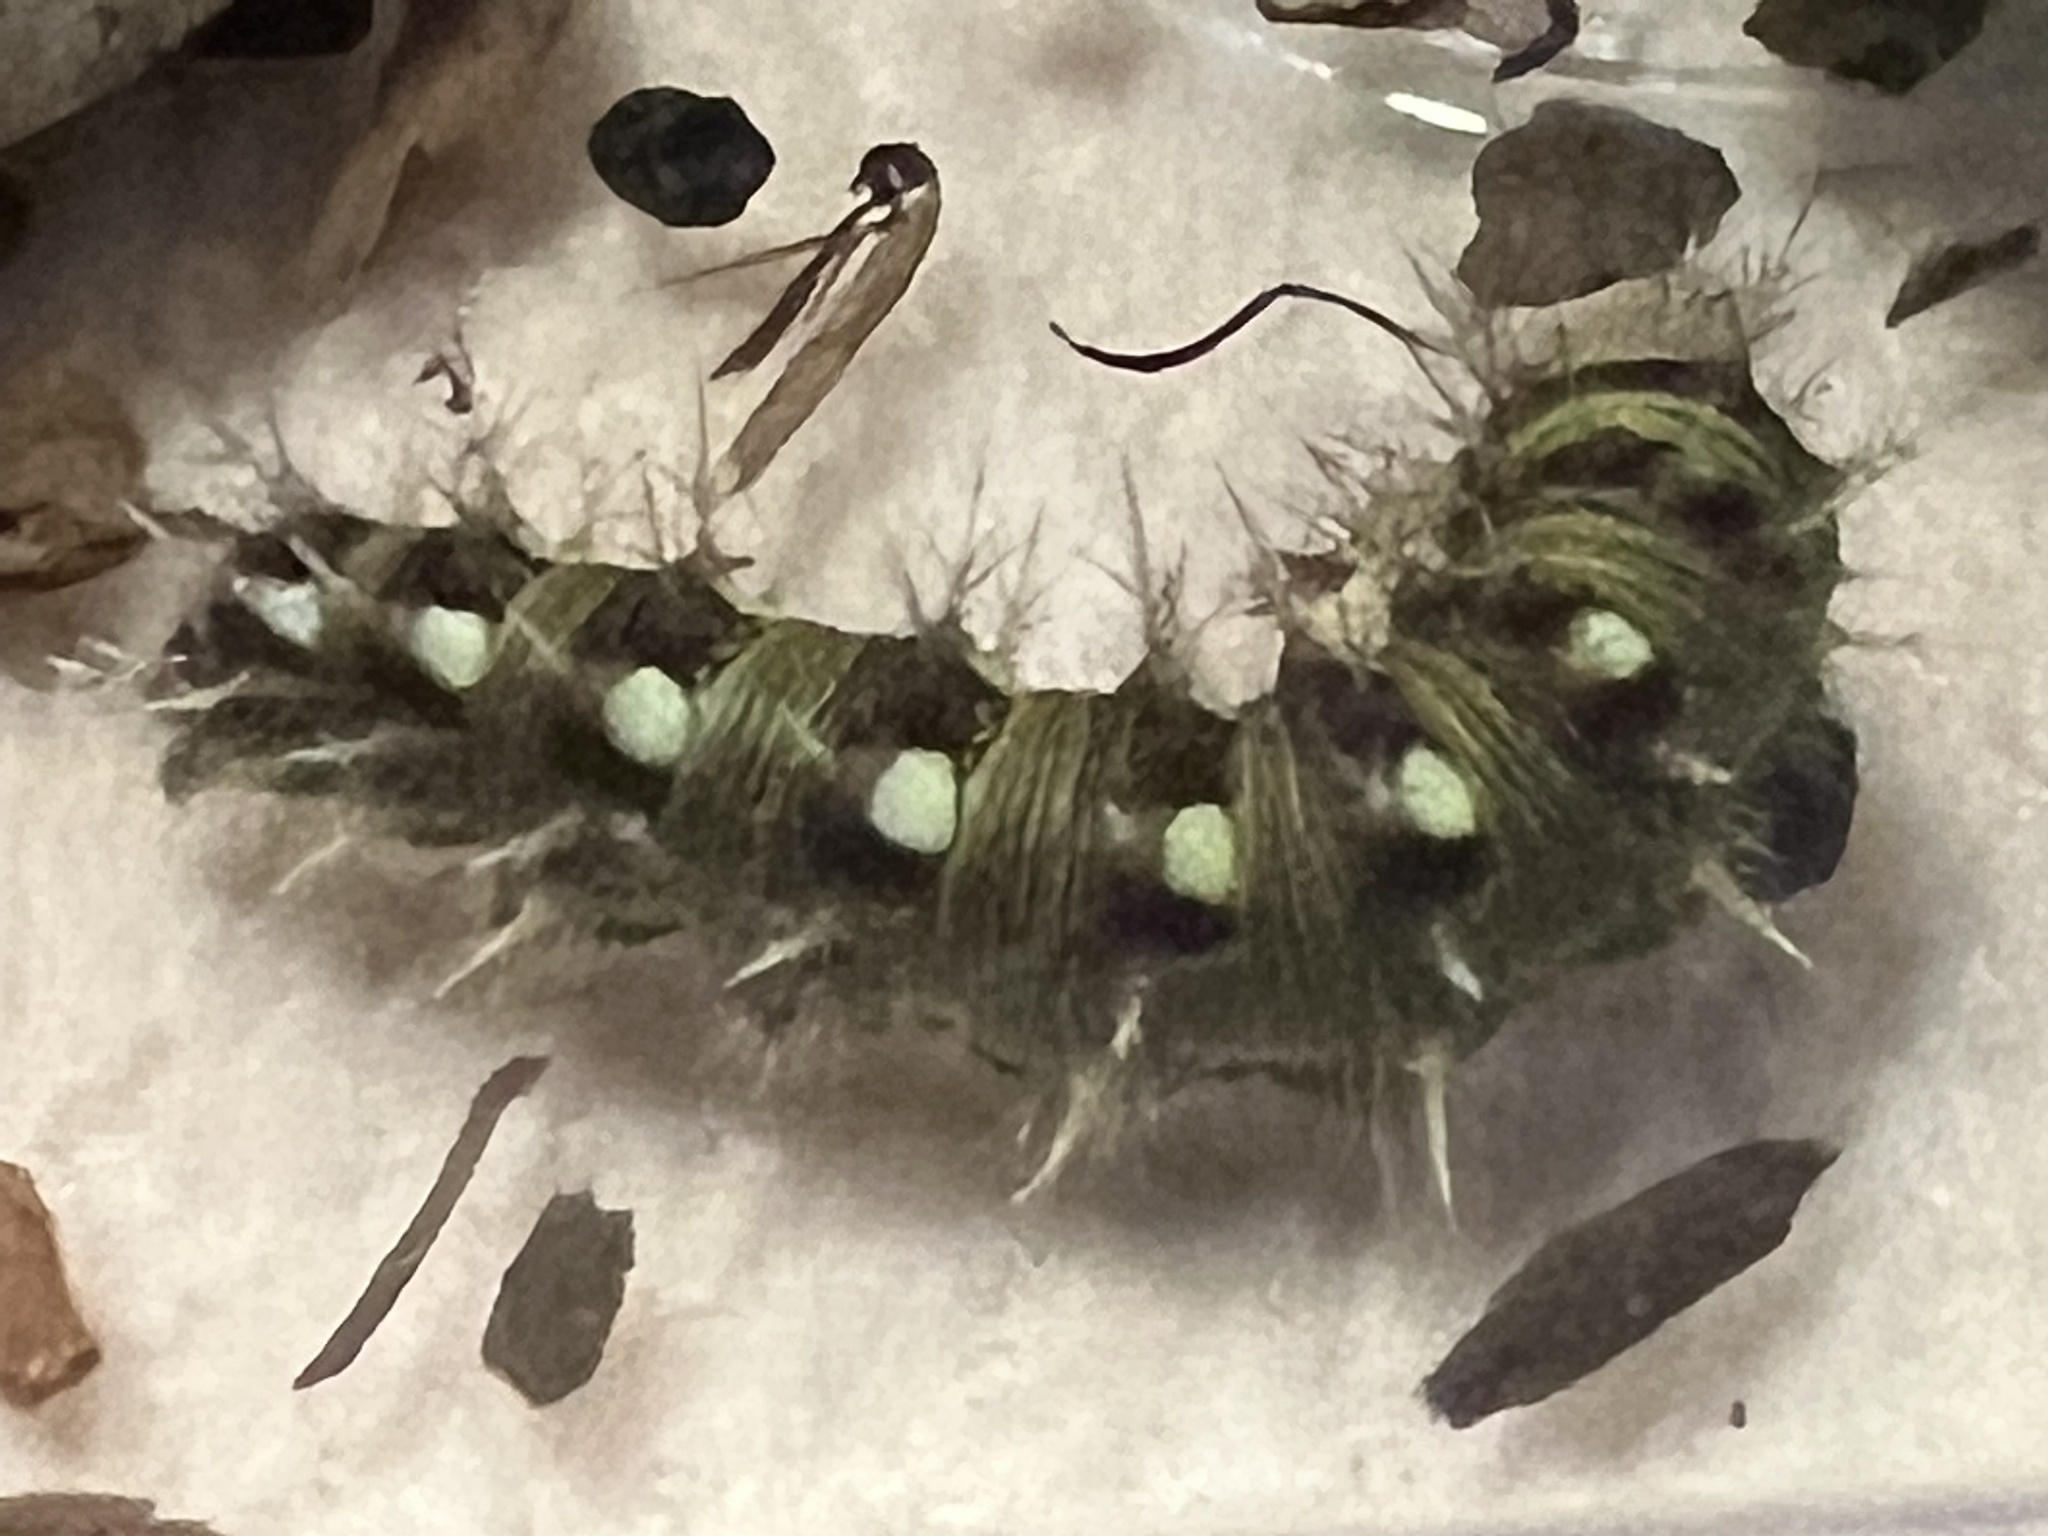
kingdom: Animalia
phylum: Arthropoda
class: Insecta
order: Lepidoptera
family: Nymphalidae
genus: Vanessa
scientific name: Vanessa virginiensis
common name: American lady
